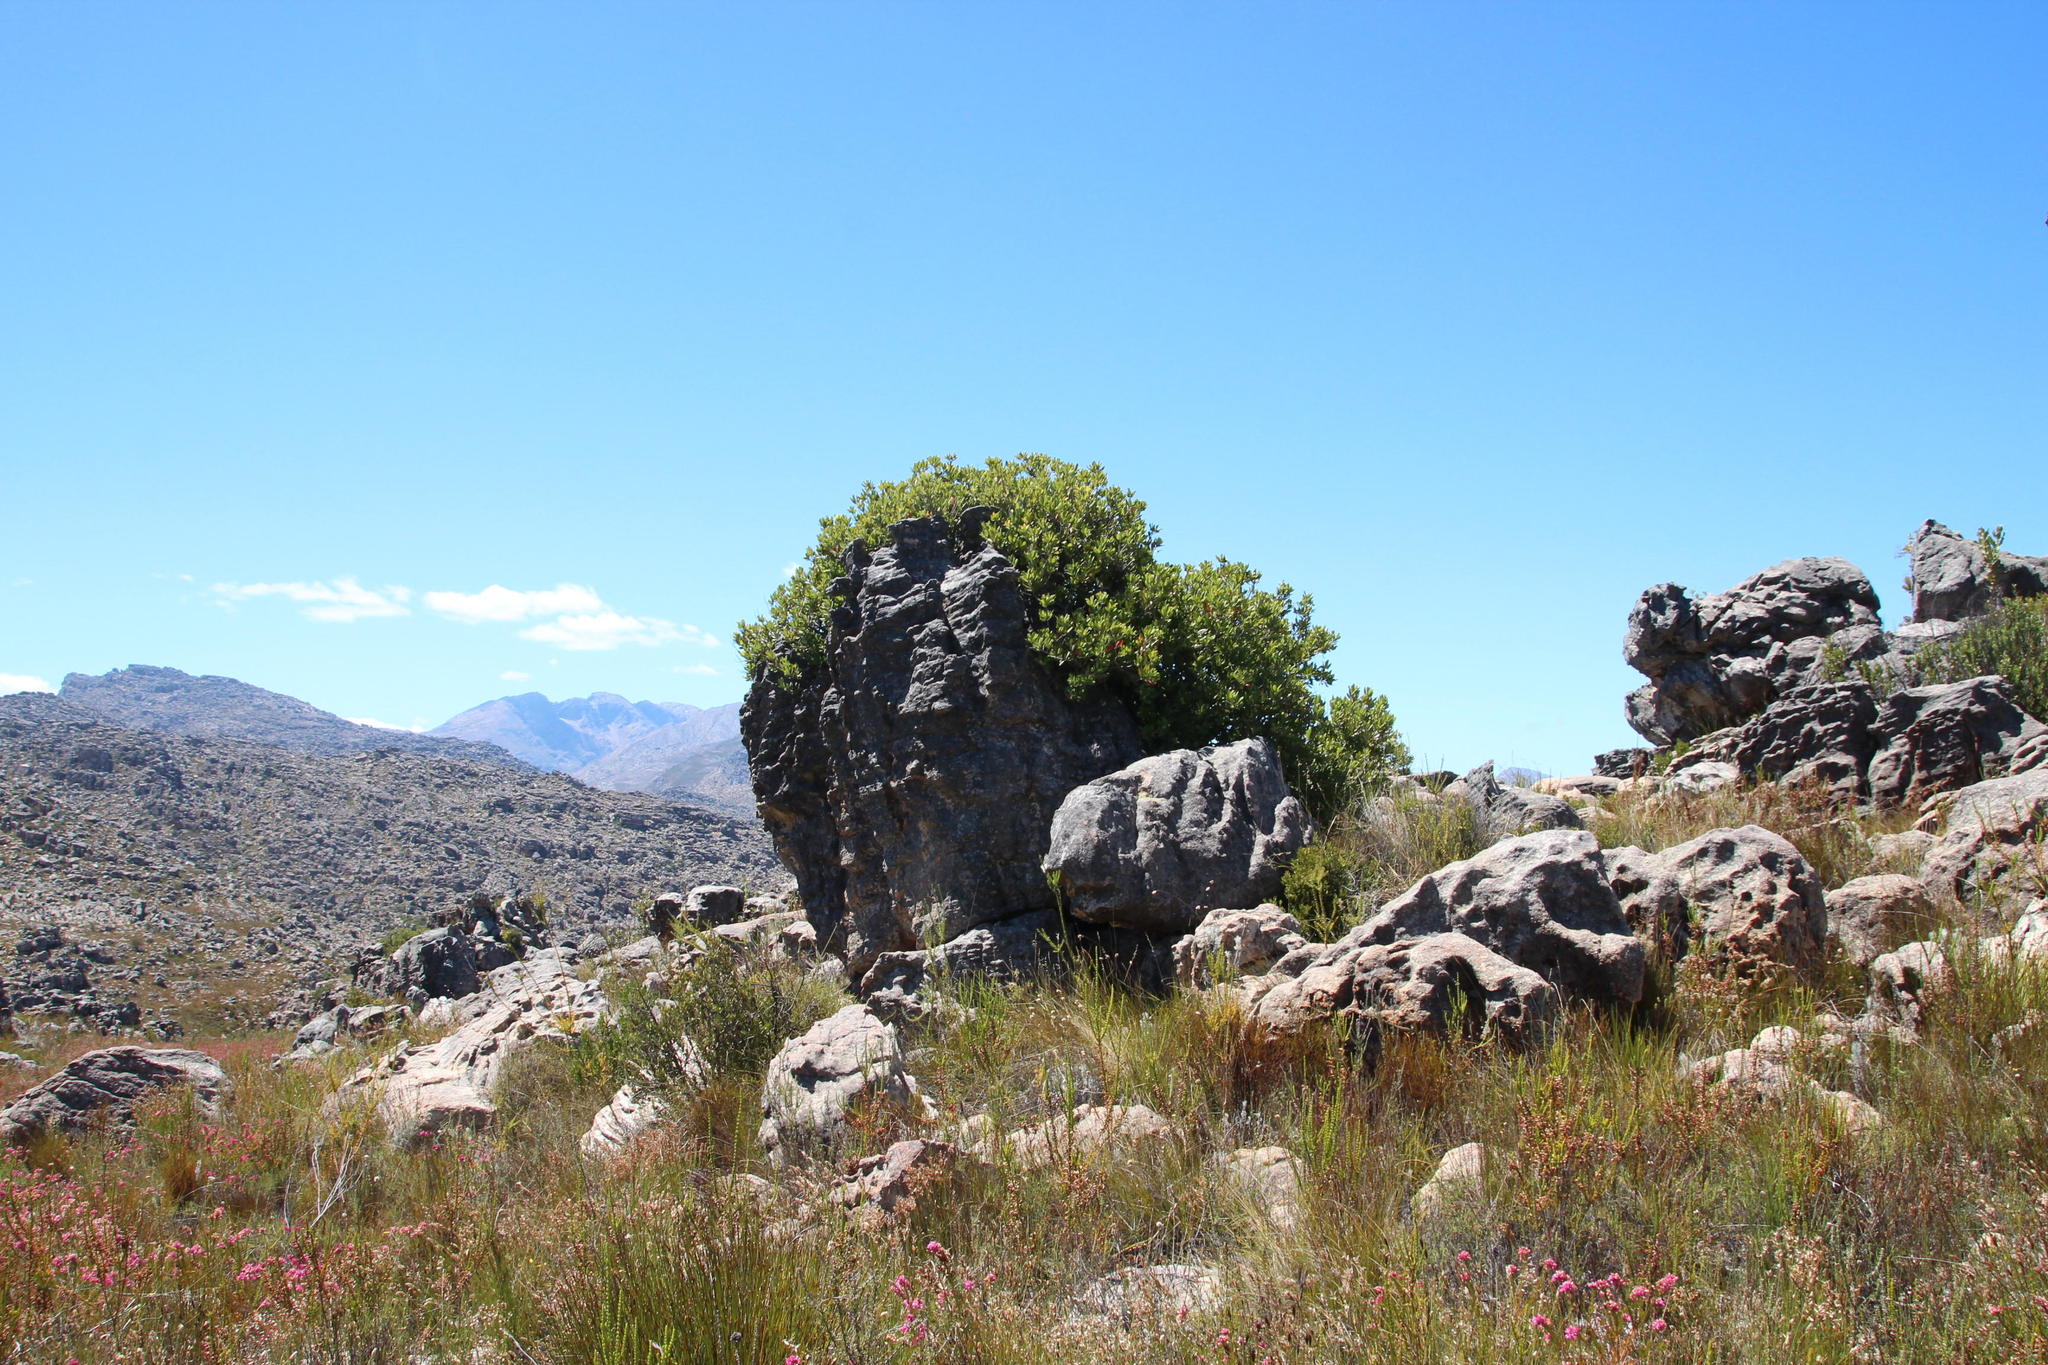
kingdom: Plantae
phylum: Tracheophyta
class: Magnoliopsida
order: Sapindales
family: Anacardiaceae
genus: Heeria
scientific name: Heeria argentea
